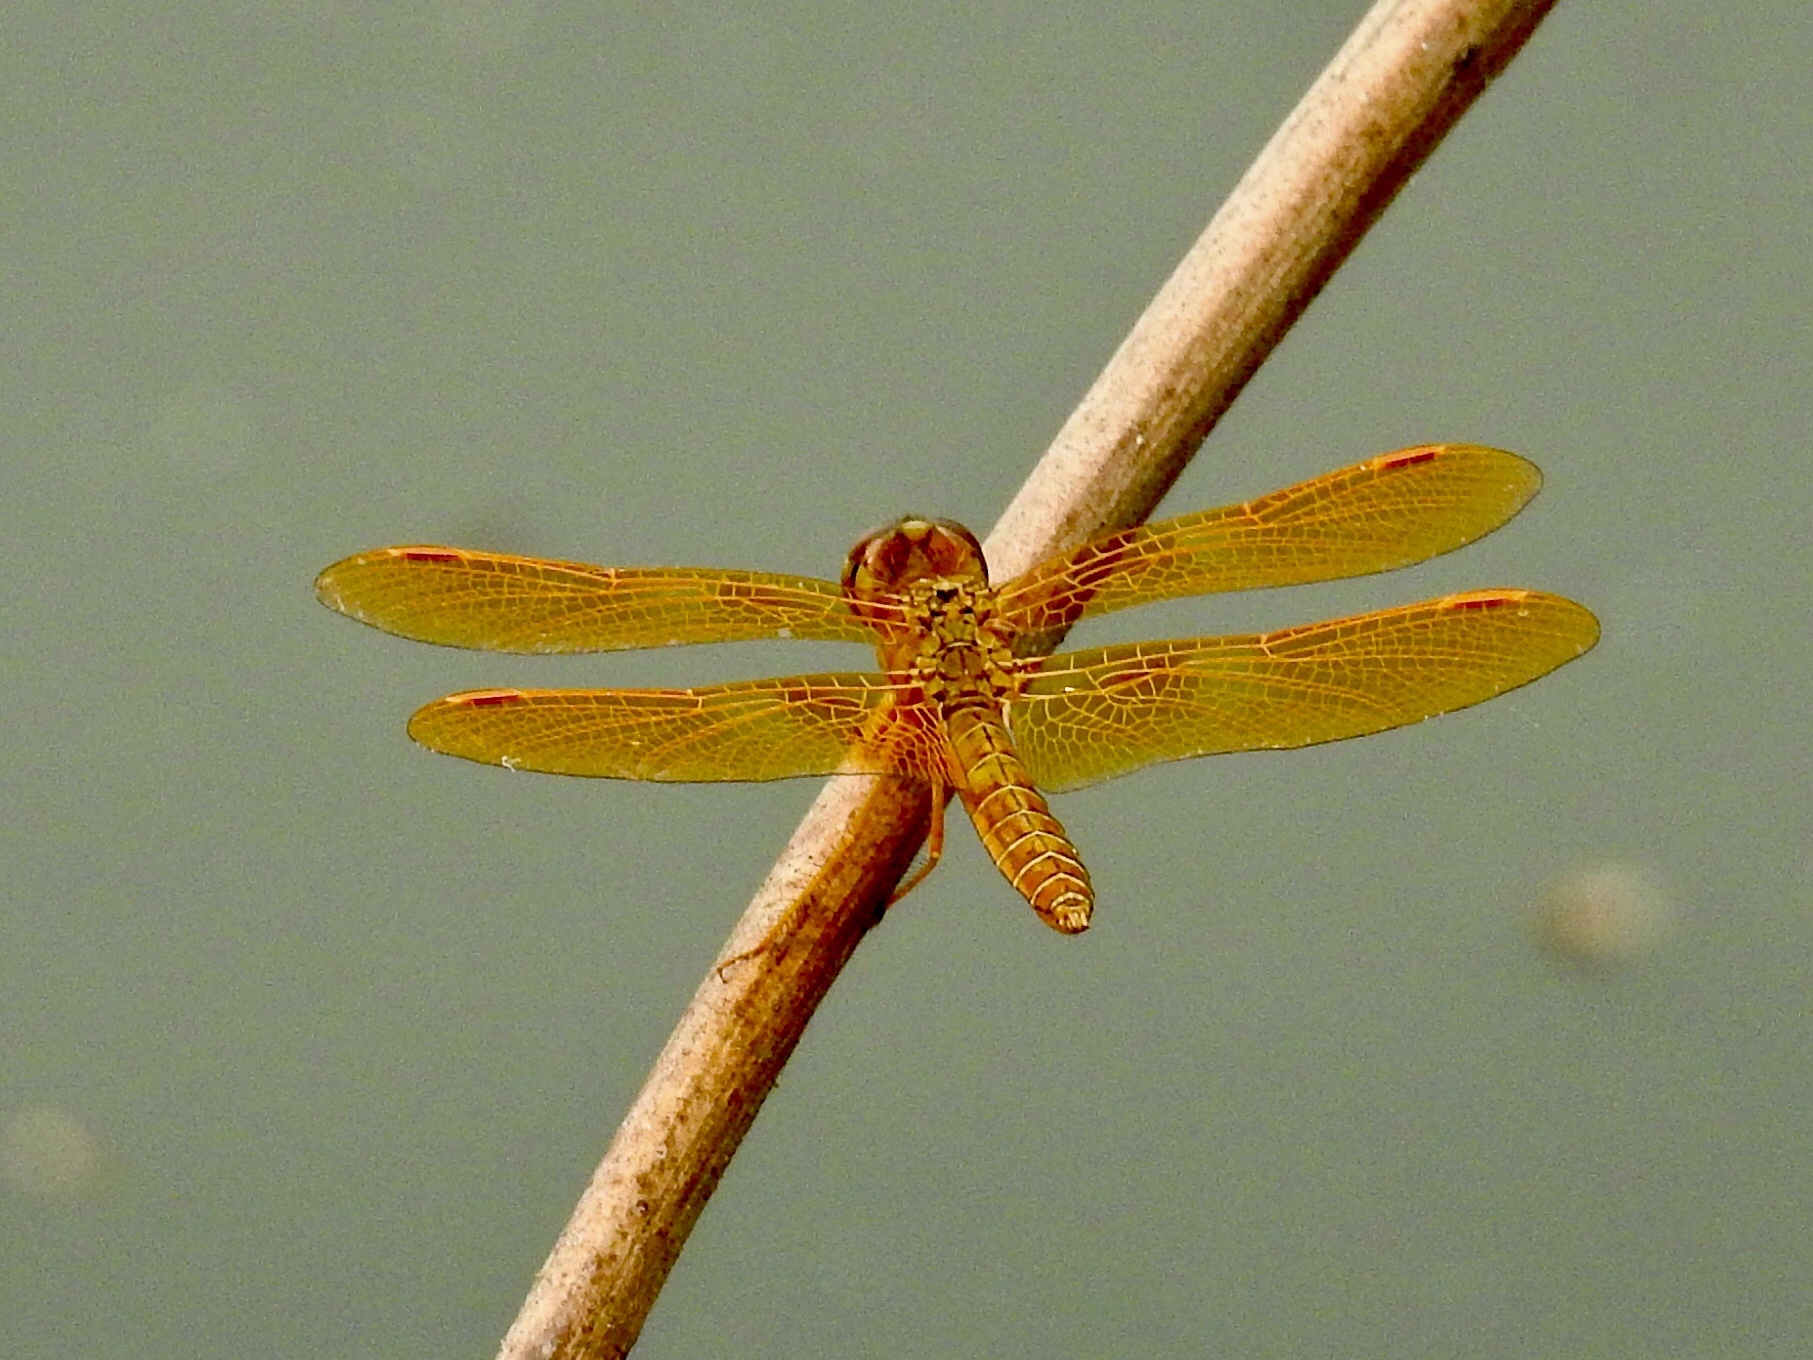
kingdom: Animalia
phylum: Arthropoda
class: Insecta
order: Odonata
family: Libellulidae
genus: Perithemis
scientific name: Perithemis intensa
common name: Mexican amberwing
